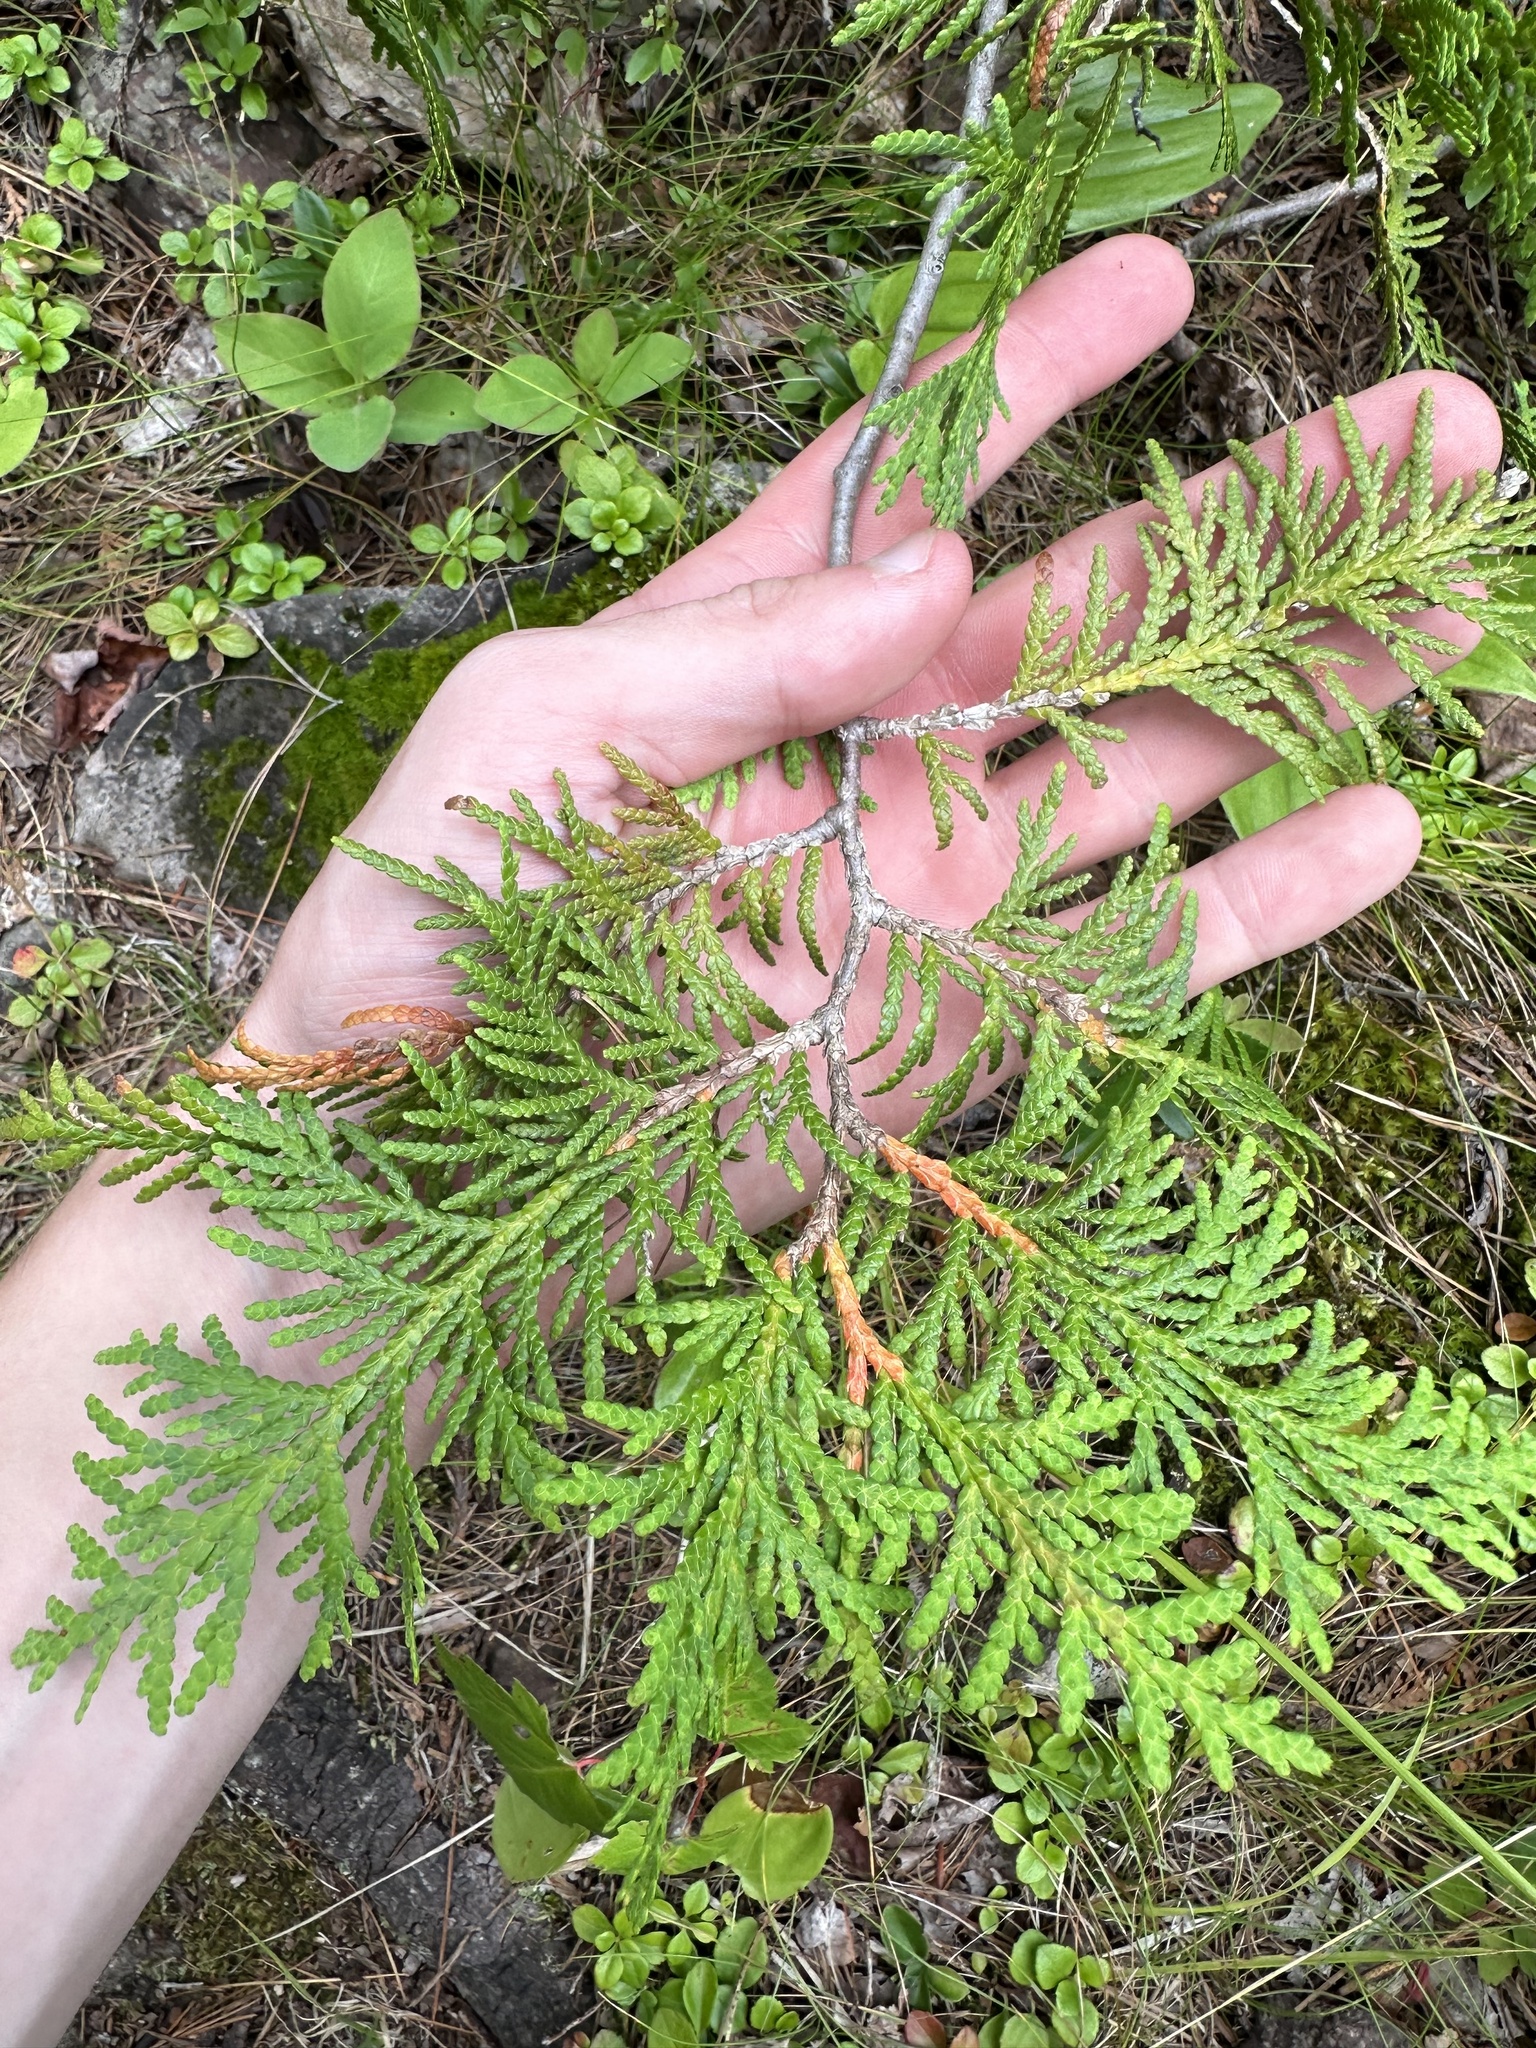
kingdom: Plantae
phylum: Tracheophyta
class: Pinopsida
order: Pinales
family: Cupressaceae
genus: Thuja
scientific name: Thuja occidentalis
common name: Northern white-cedar
